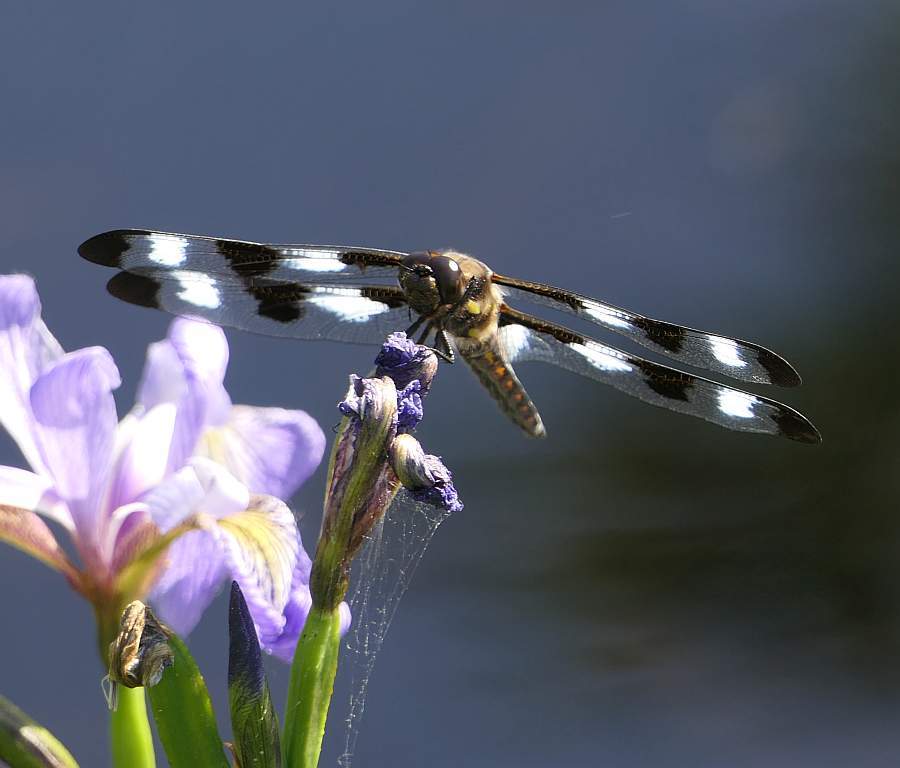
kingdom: Animalia
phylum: Arthropoda
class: Insecta
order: Odonata
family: Libellulidae
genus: Libellula
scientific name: Libellula pulchella
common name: Twelve-spotted skimmer
